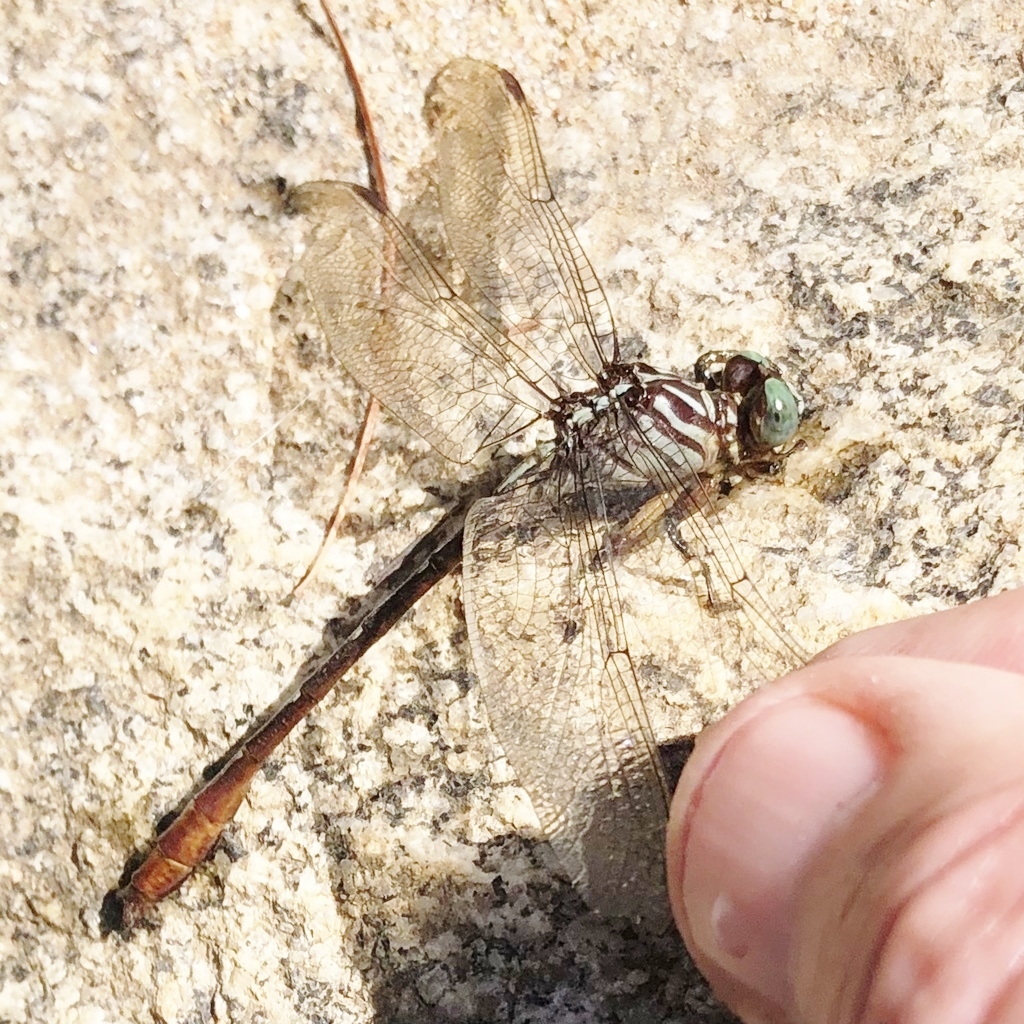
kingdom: Animalia
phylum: Arthropoda
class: Insecta
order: Odonata
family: Gomphidae
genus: Stylurus
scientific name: Stylurus plagiatus
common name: Russet-tipped clubtail
